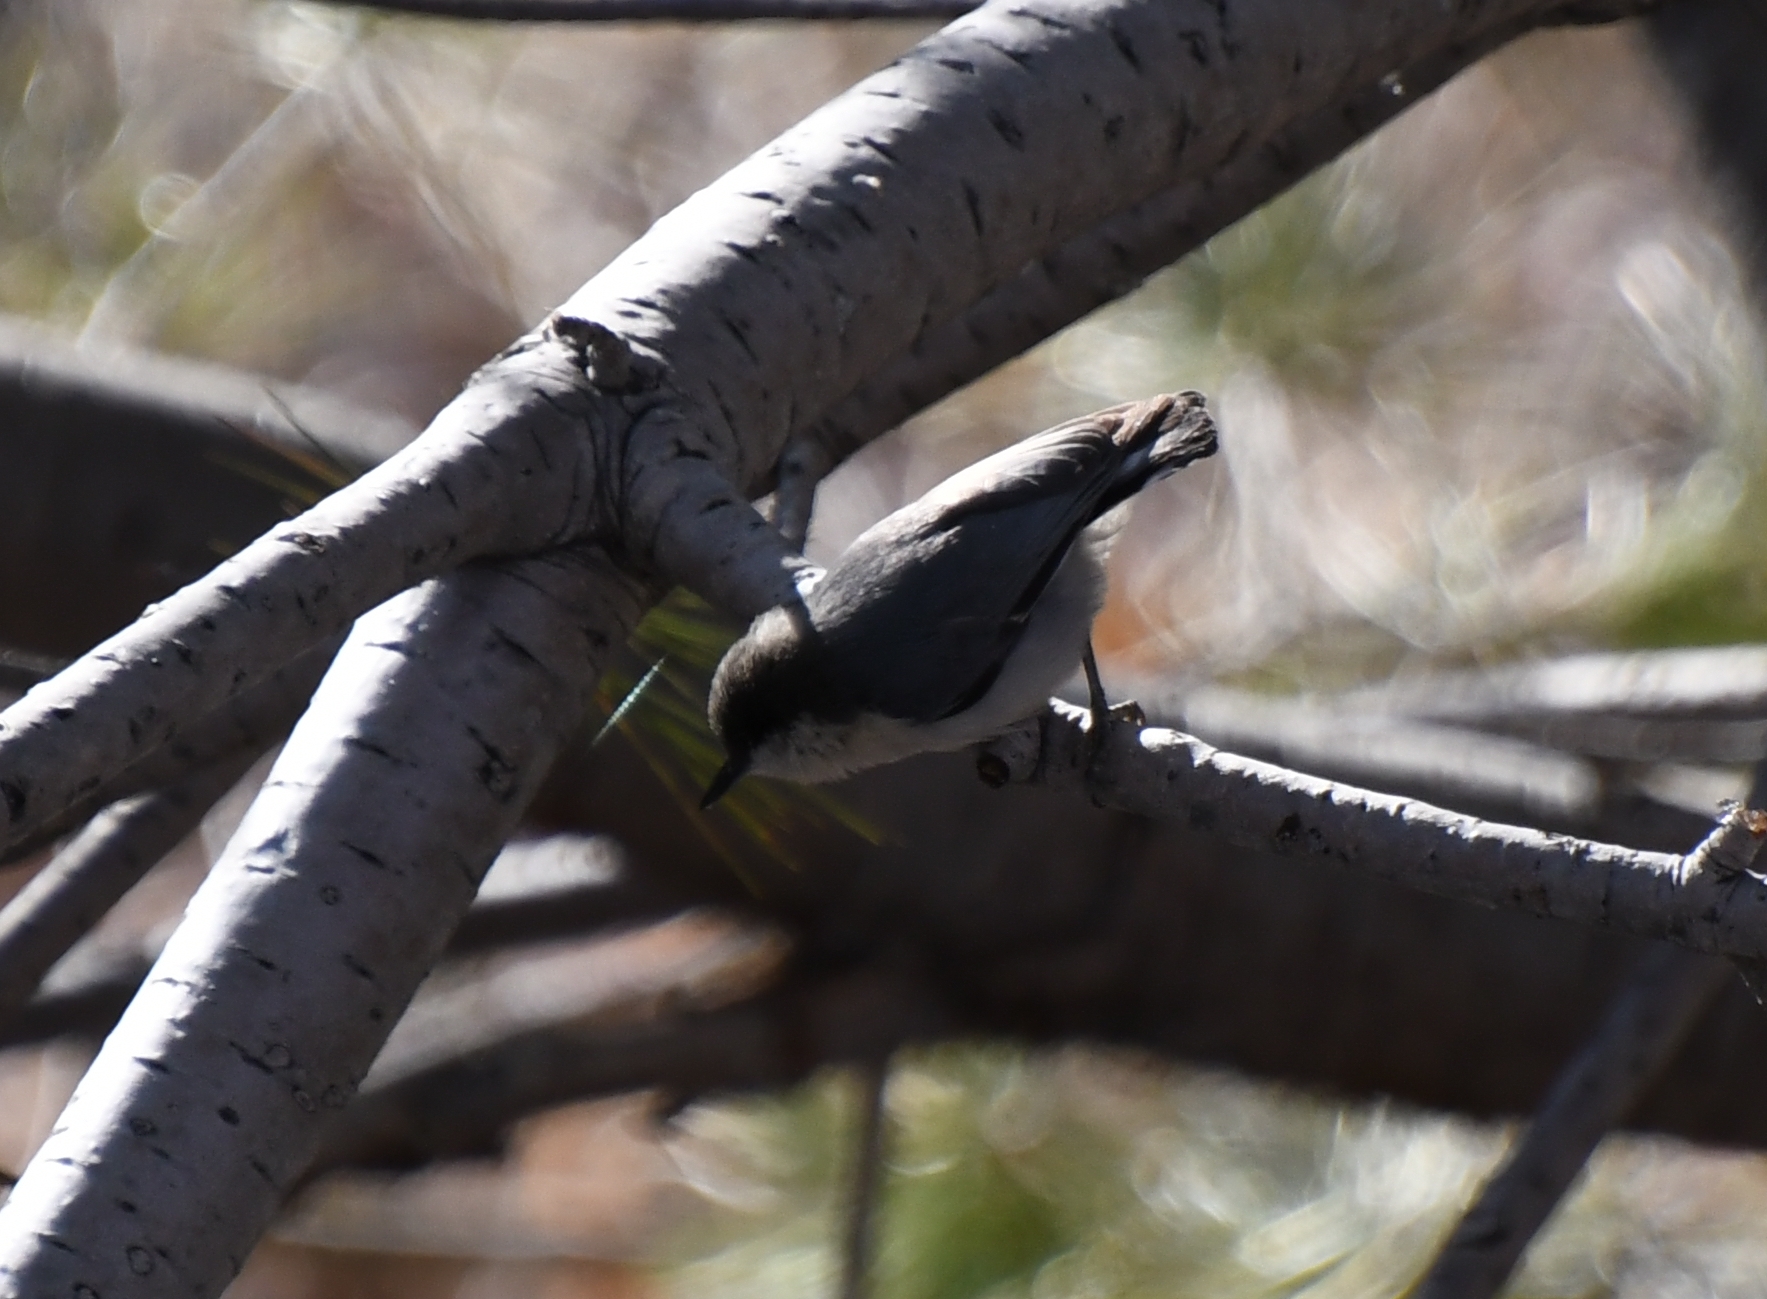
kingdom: Animalia
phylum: Chordata
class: Aves
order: Passeriformes
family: Sittidae
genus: Sitta
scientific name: Sitta pygmaea
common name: Pygmy nuthatch
